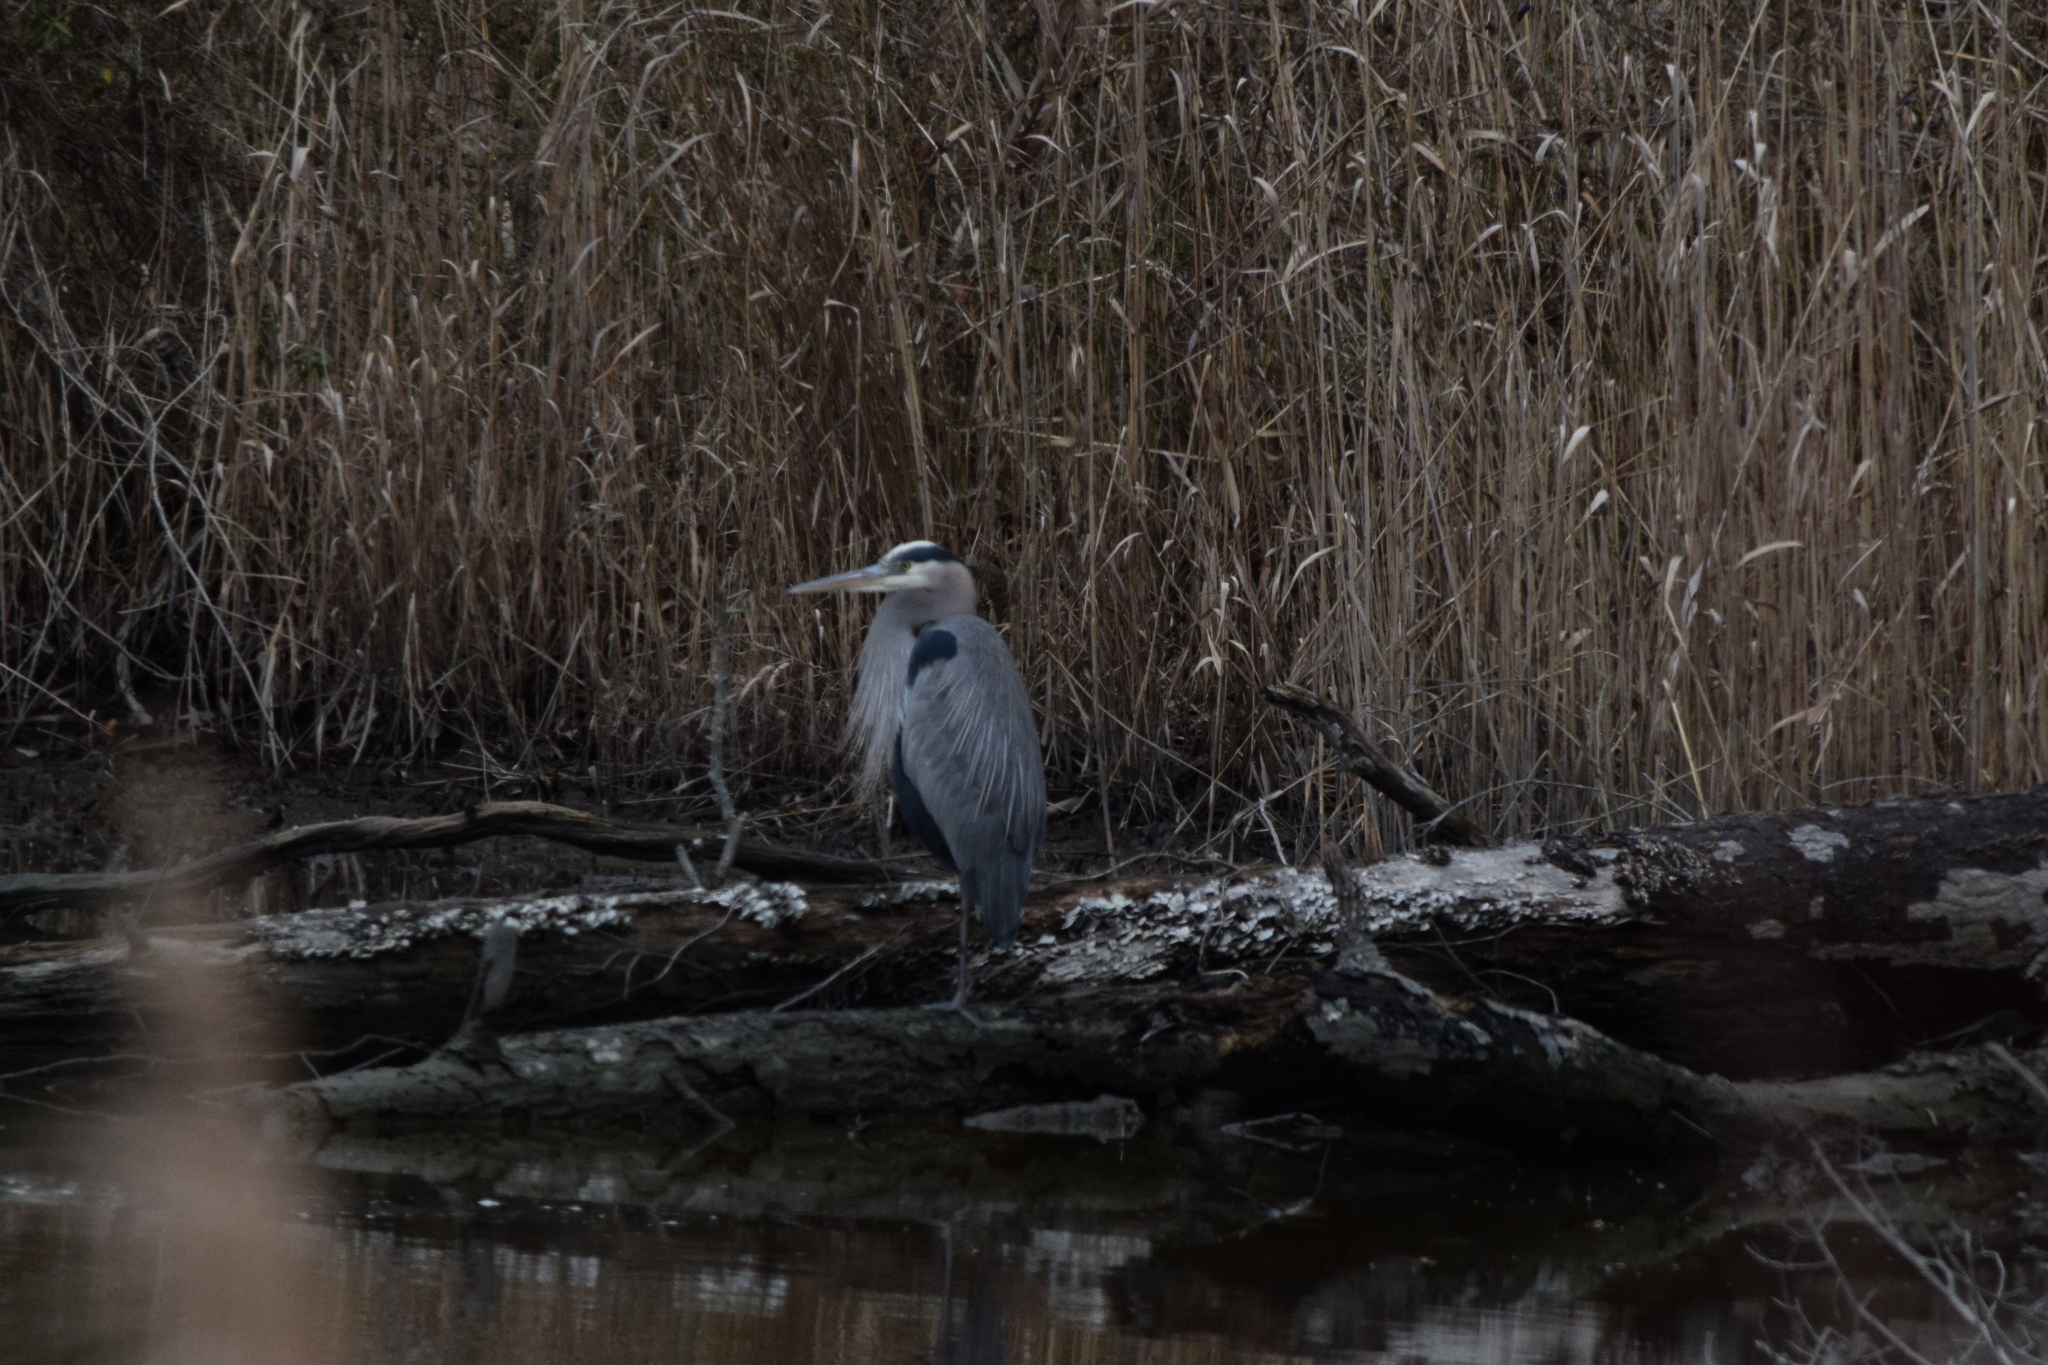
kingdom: Animalia
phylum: Chordata
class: Aves
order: Pelecaniformes
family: Ardeidae
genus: Ardea
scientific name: Ardea herodias
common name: Great blue heron
